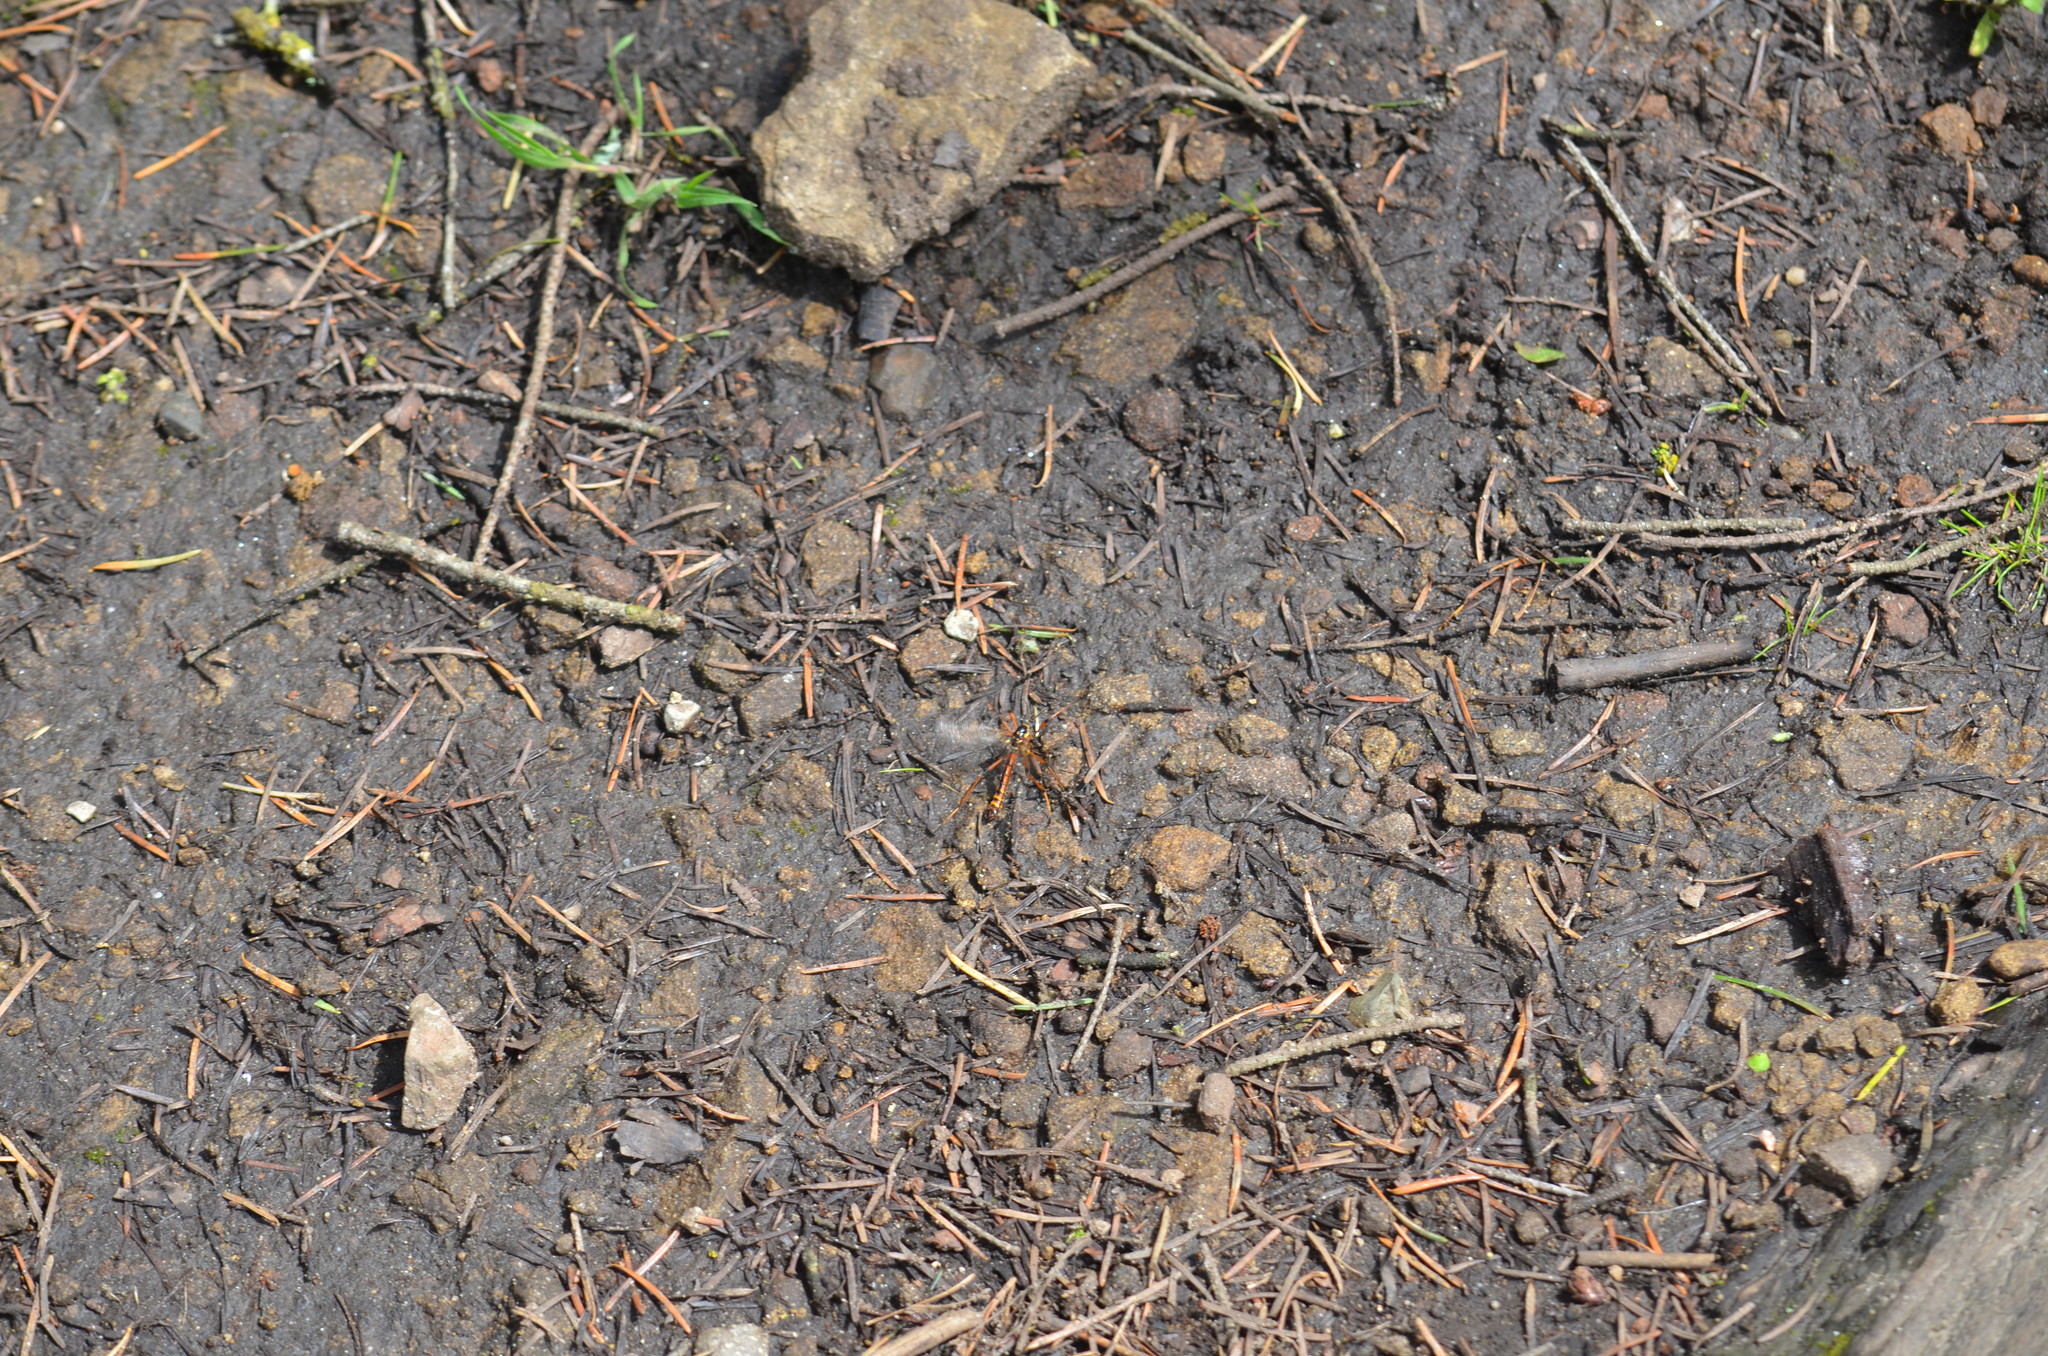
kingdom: Animalia
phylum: Arthropoda
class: Insecta
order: Diptera
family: Tipulidae
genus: Phoroctenia
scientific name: Phoroctenia vittata
